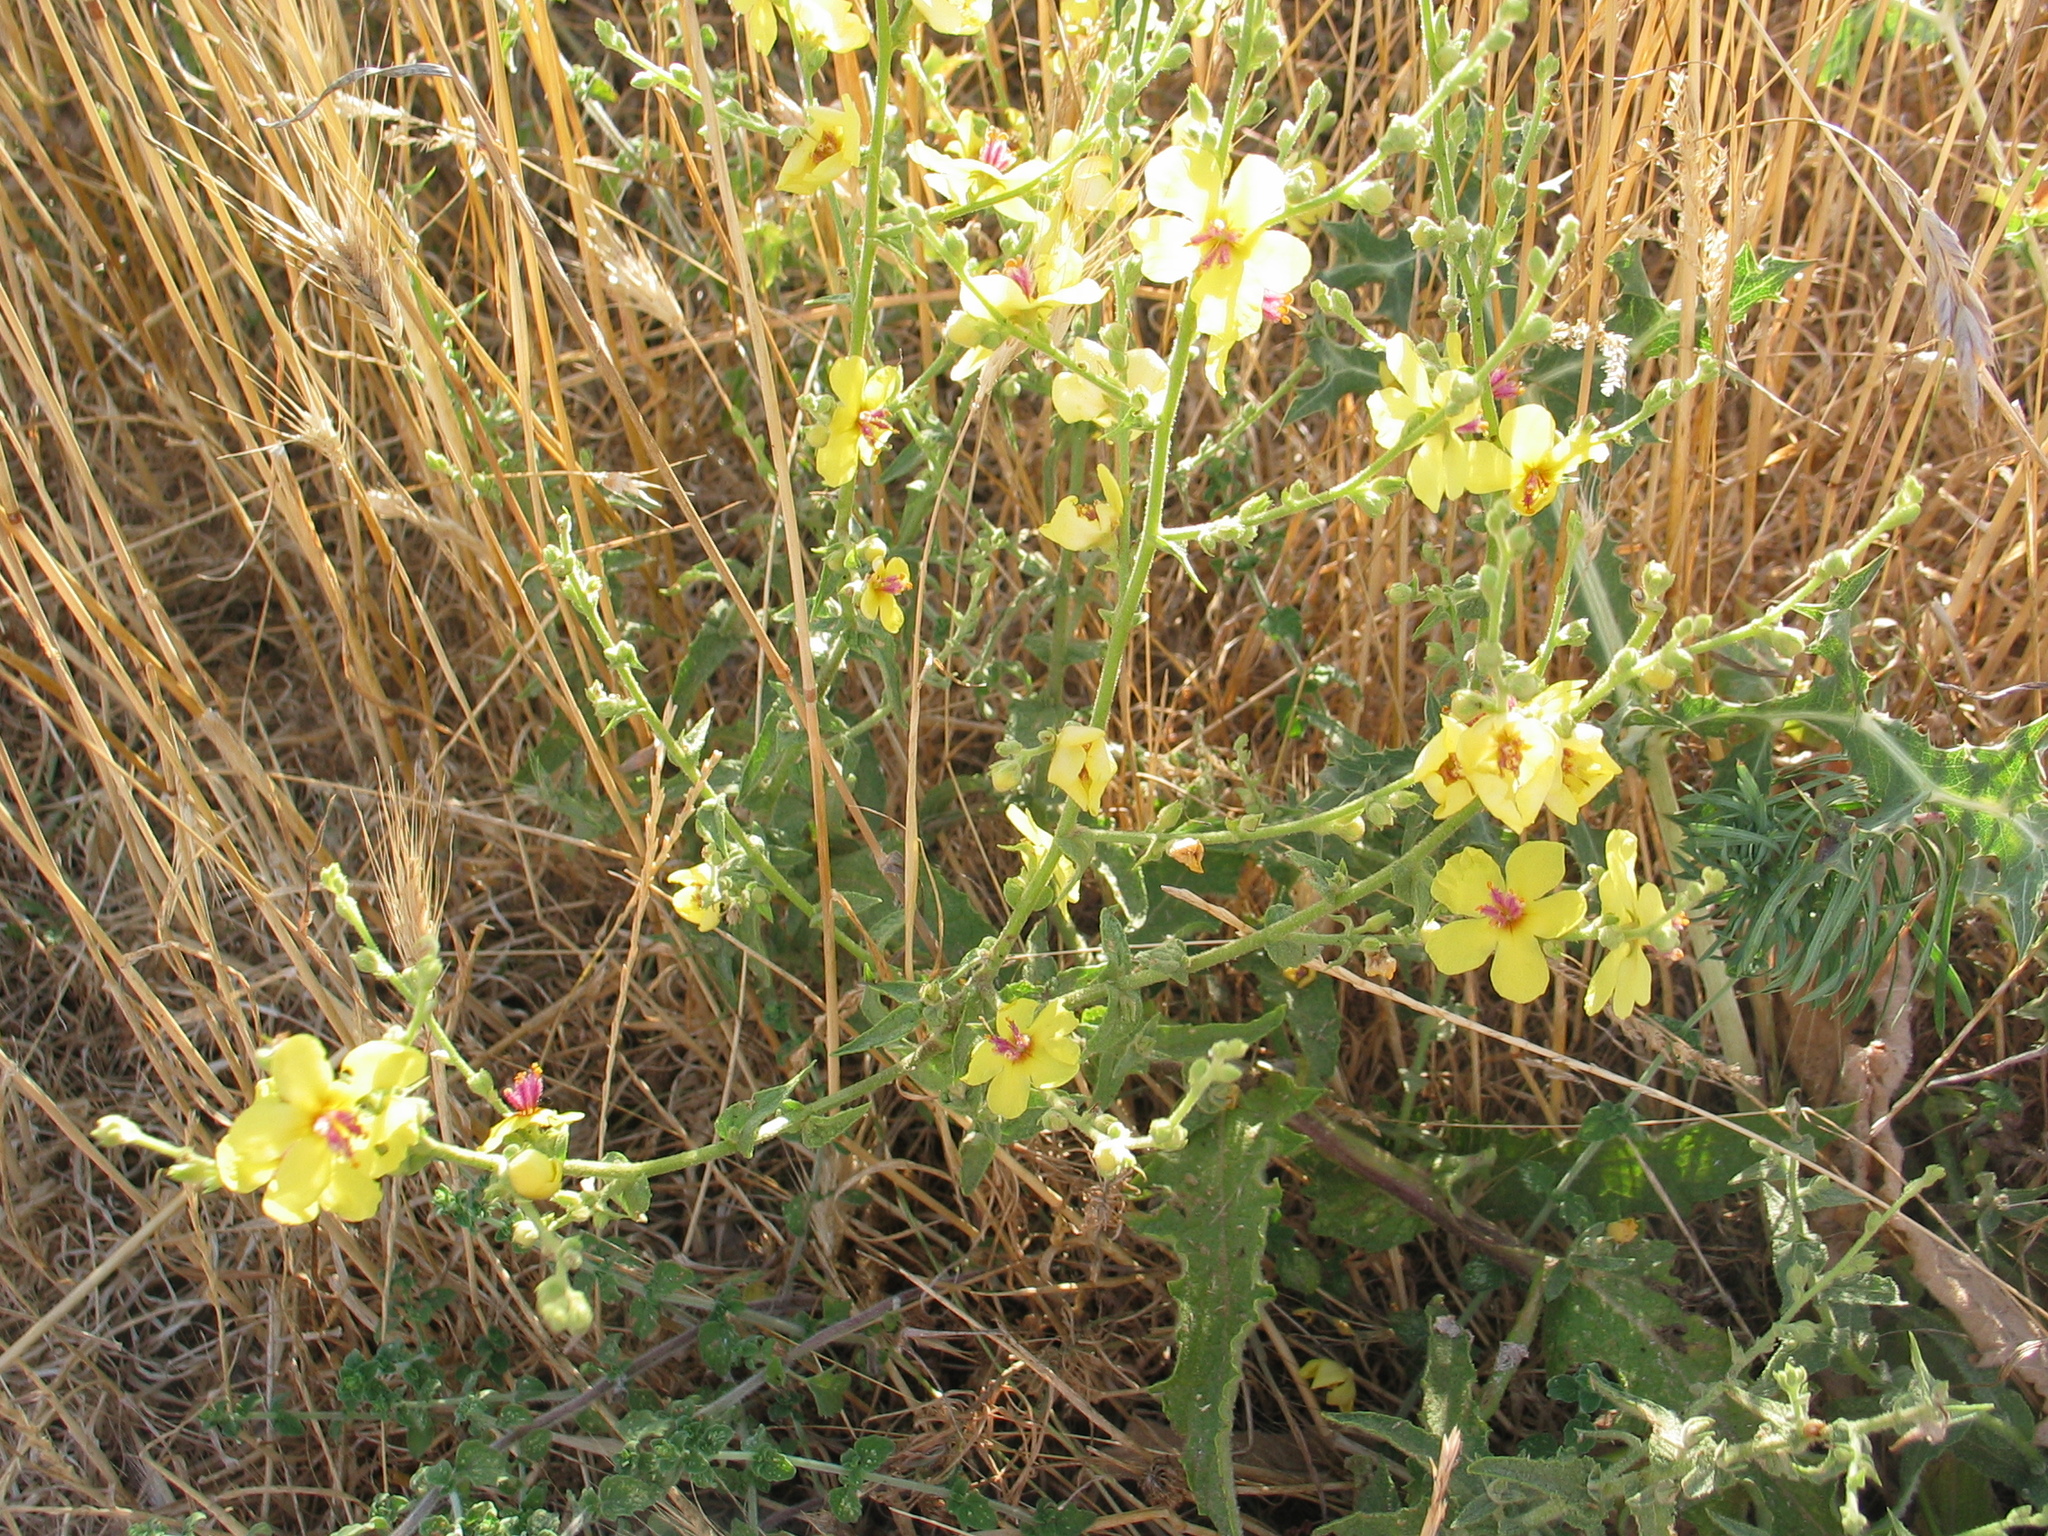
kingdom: Plantae
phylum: Tracheophyta
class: Magnoliopsida
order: Lamiales
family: Scrophulariaceae
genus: Verbascum
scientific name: Verbascum sinuatum
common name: Wavyleaf mullein
